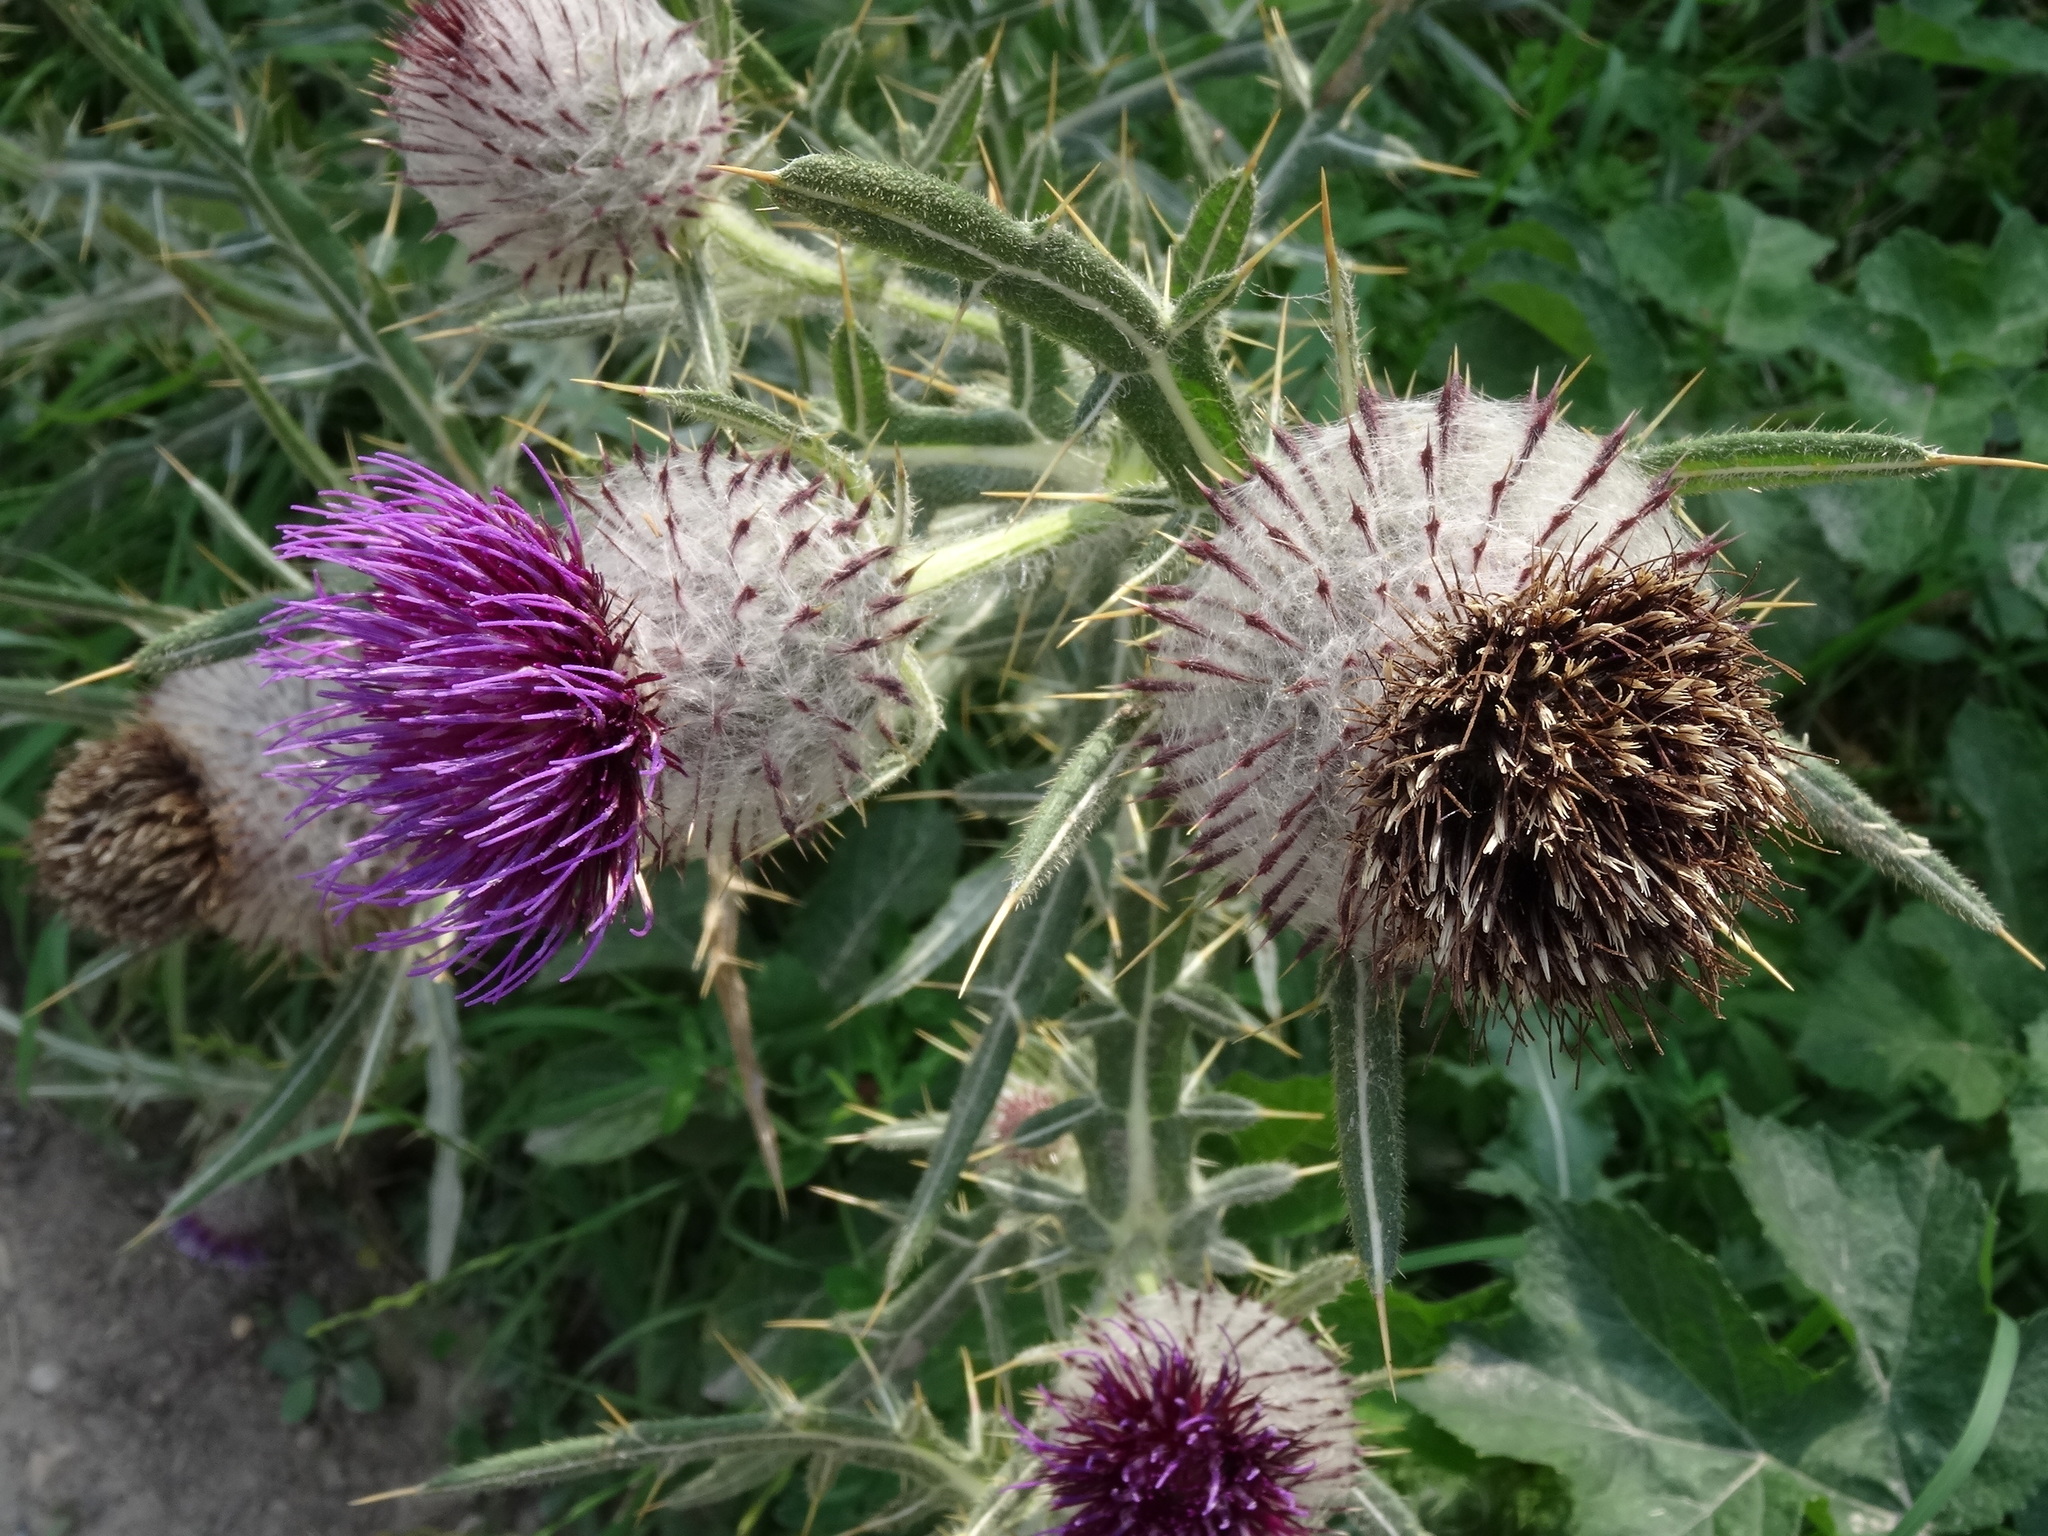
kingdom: Plantae
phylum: Tracheophyta
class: Magnoliopsida
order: Asterales
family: Asteraceae
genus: Lophiolepis
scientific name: Lophiolepis eriophora
